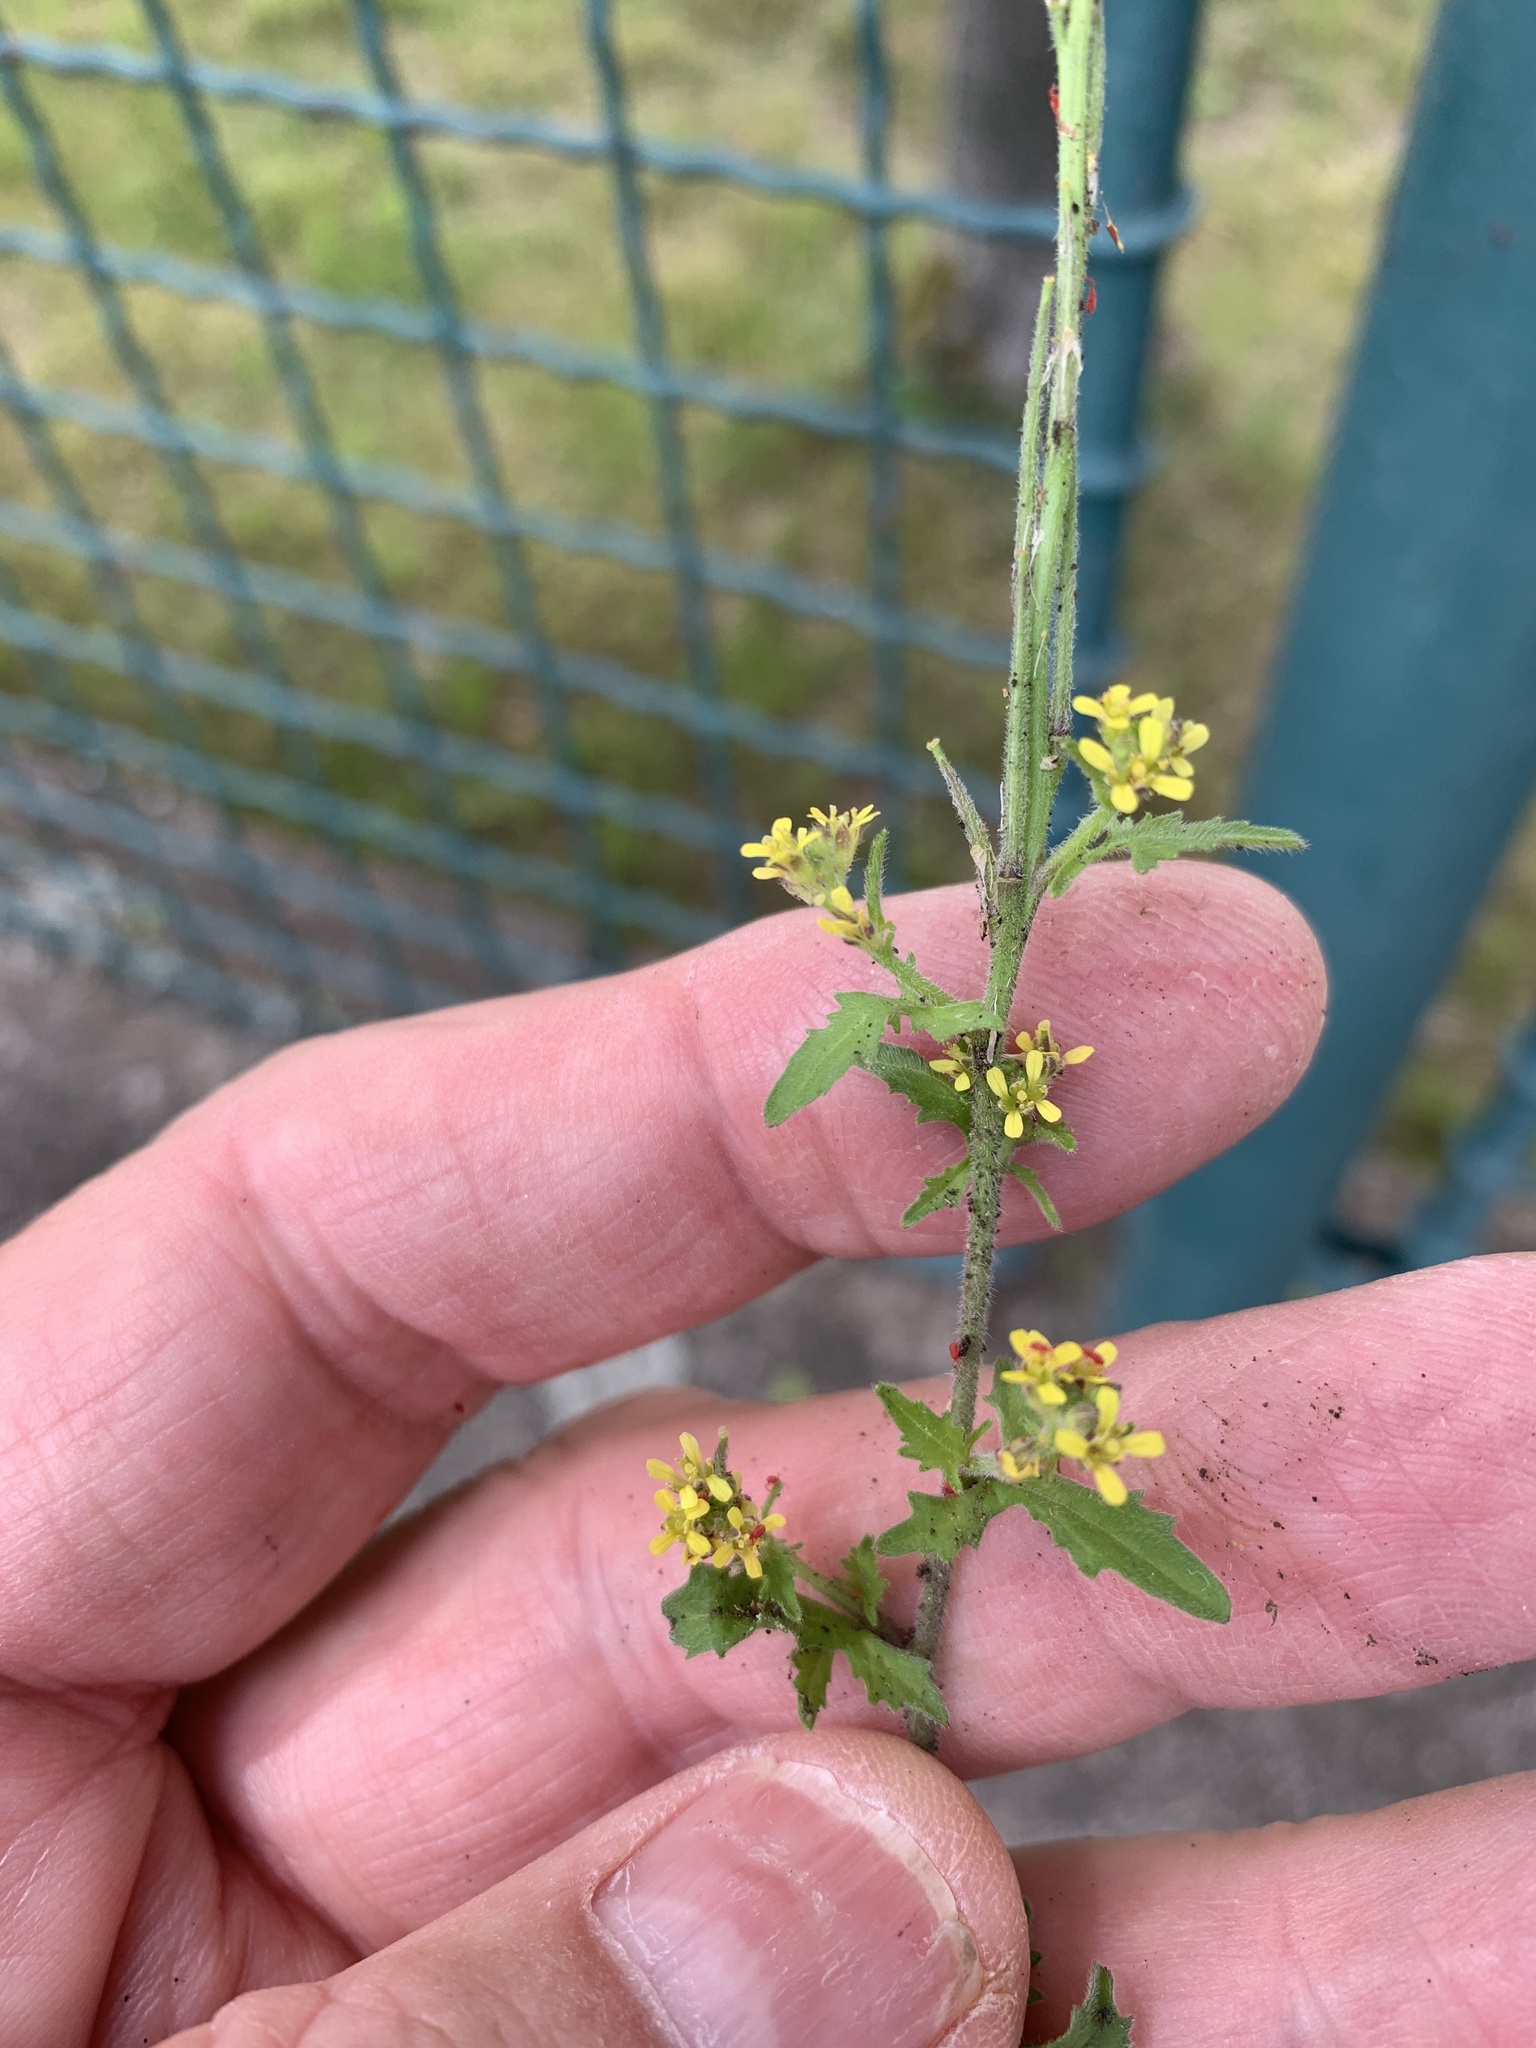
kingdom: Plantae
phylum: Tracheophyta
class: Magnoliopsida
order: Brassicales
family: Brassicaceae
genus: Sisymbrium
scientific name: Sisymbrium officinale
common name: Hedge mustard
